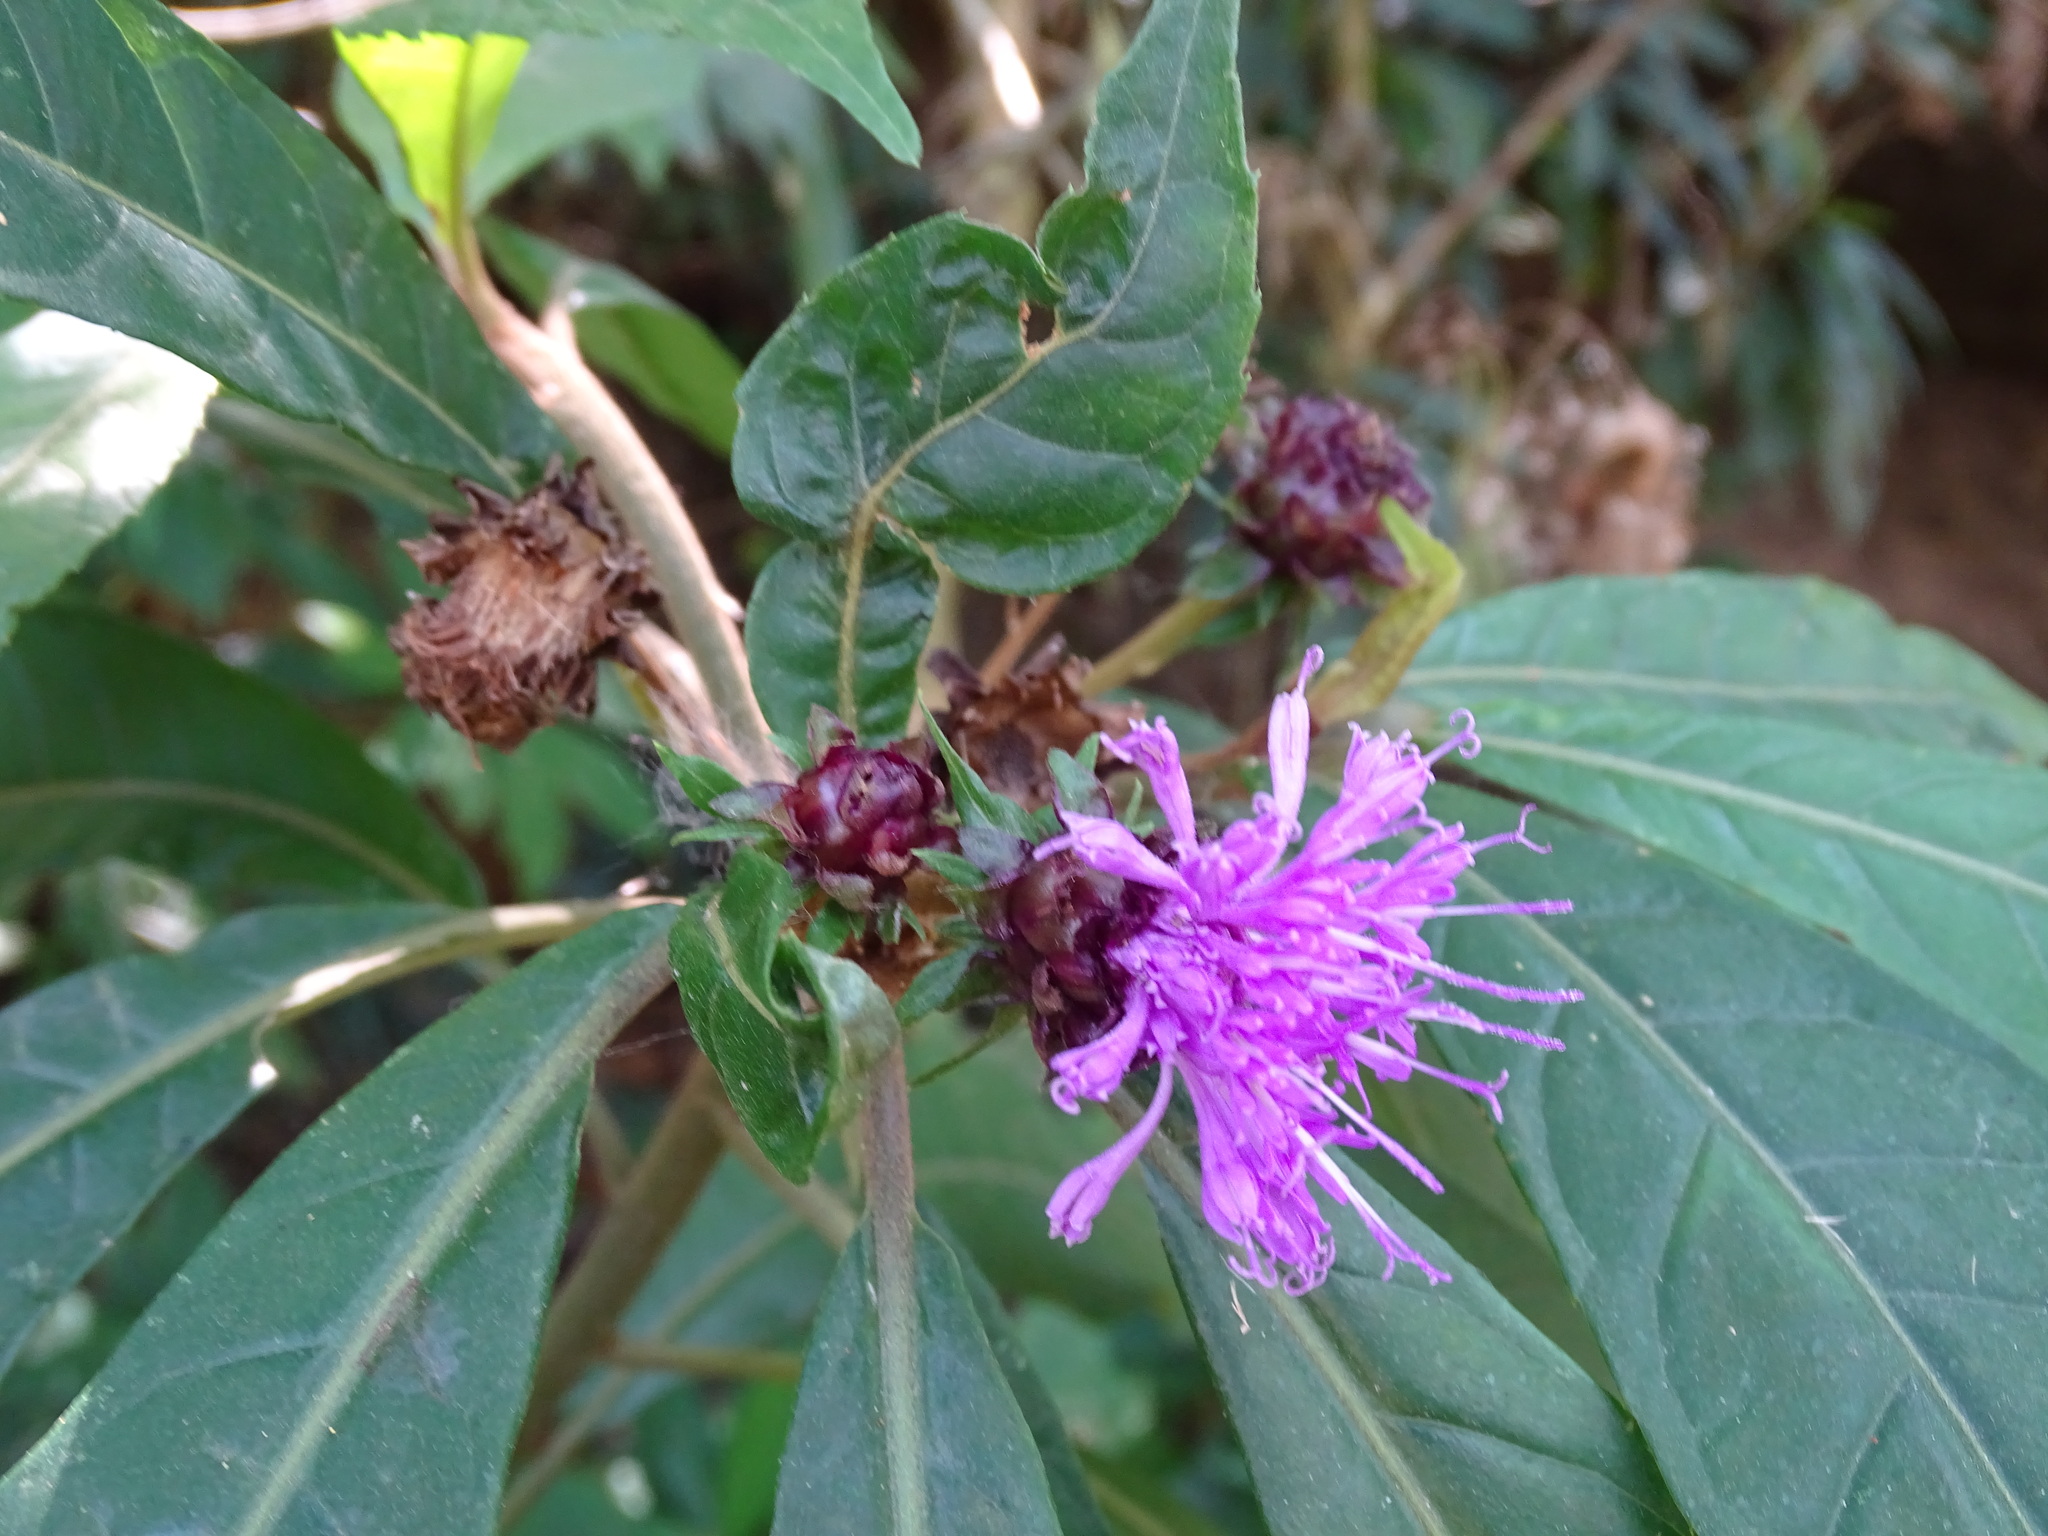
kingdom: Plantae
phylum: Tracheophyta
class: Magnoliopsida
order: Asterales
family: Asteraceae
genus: Lepidonia
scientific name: Lepidonia salvinae
